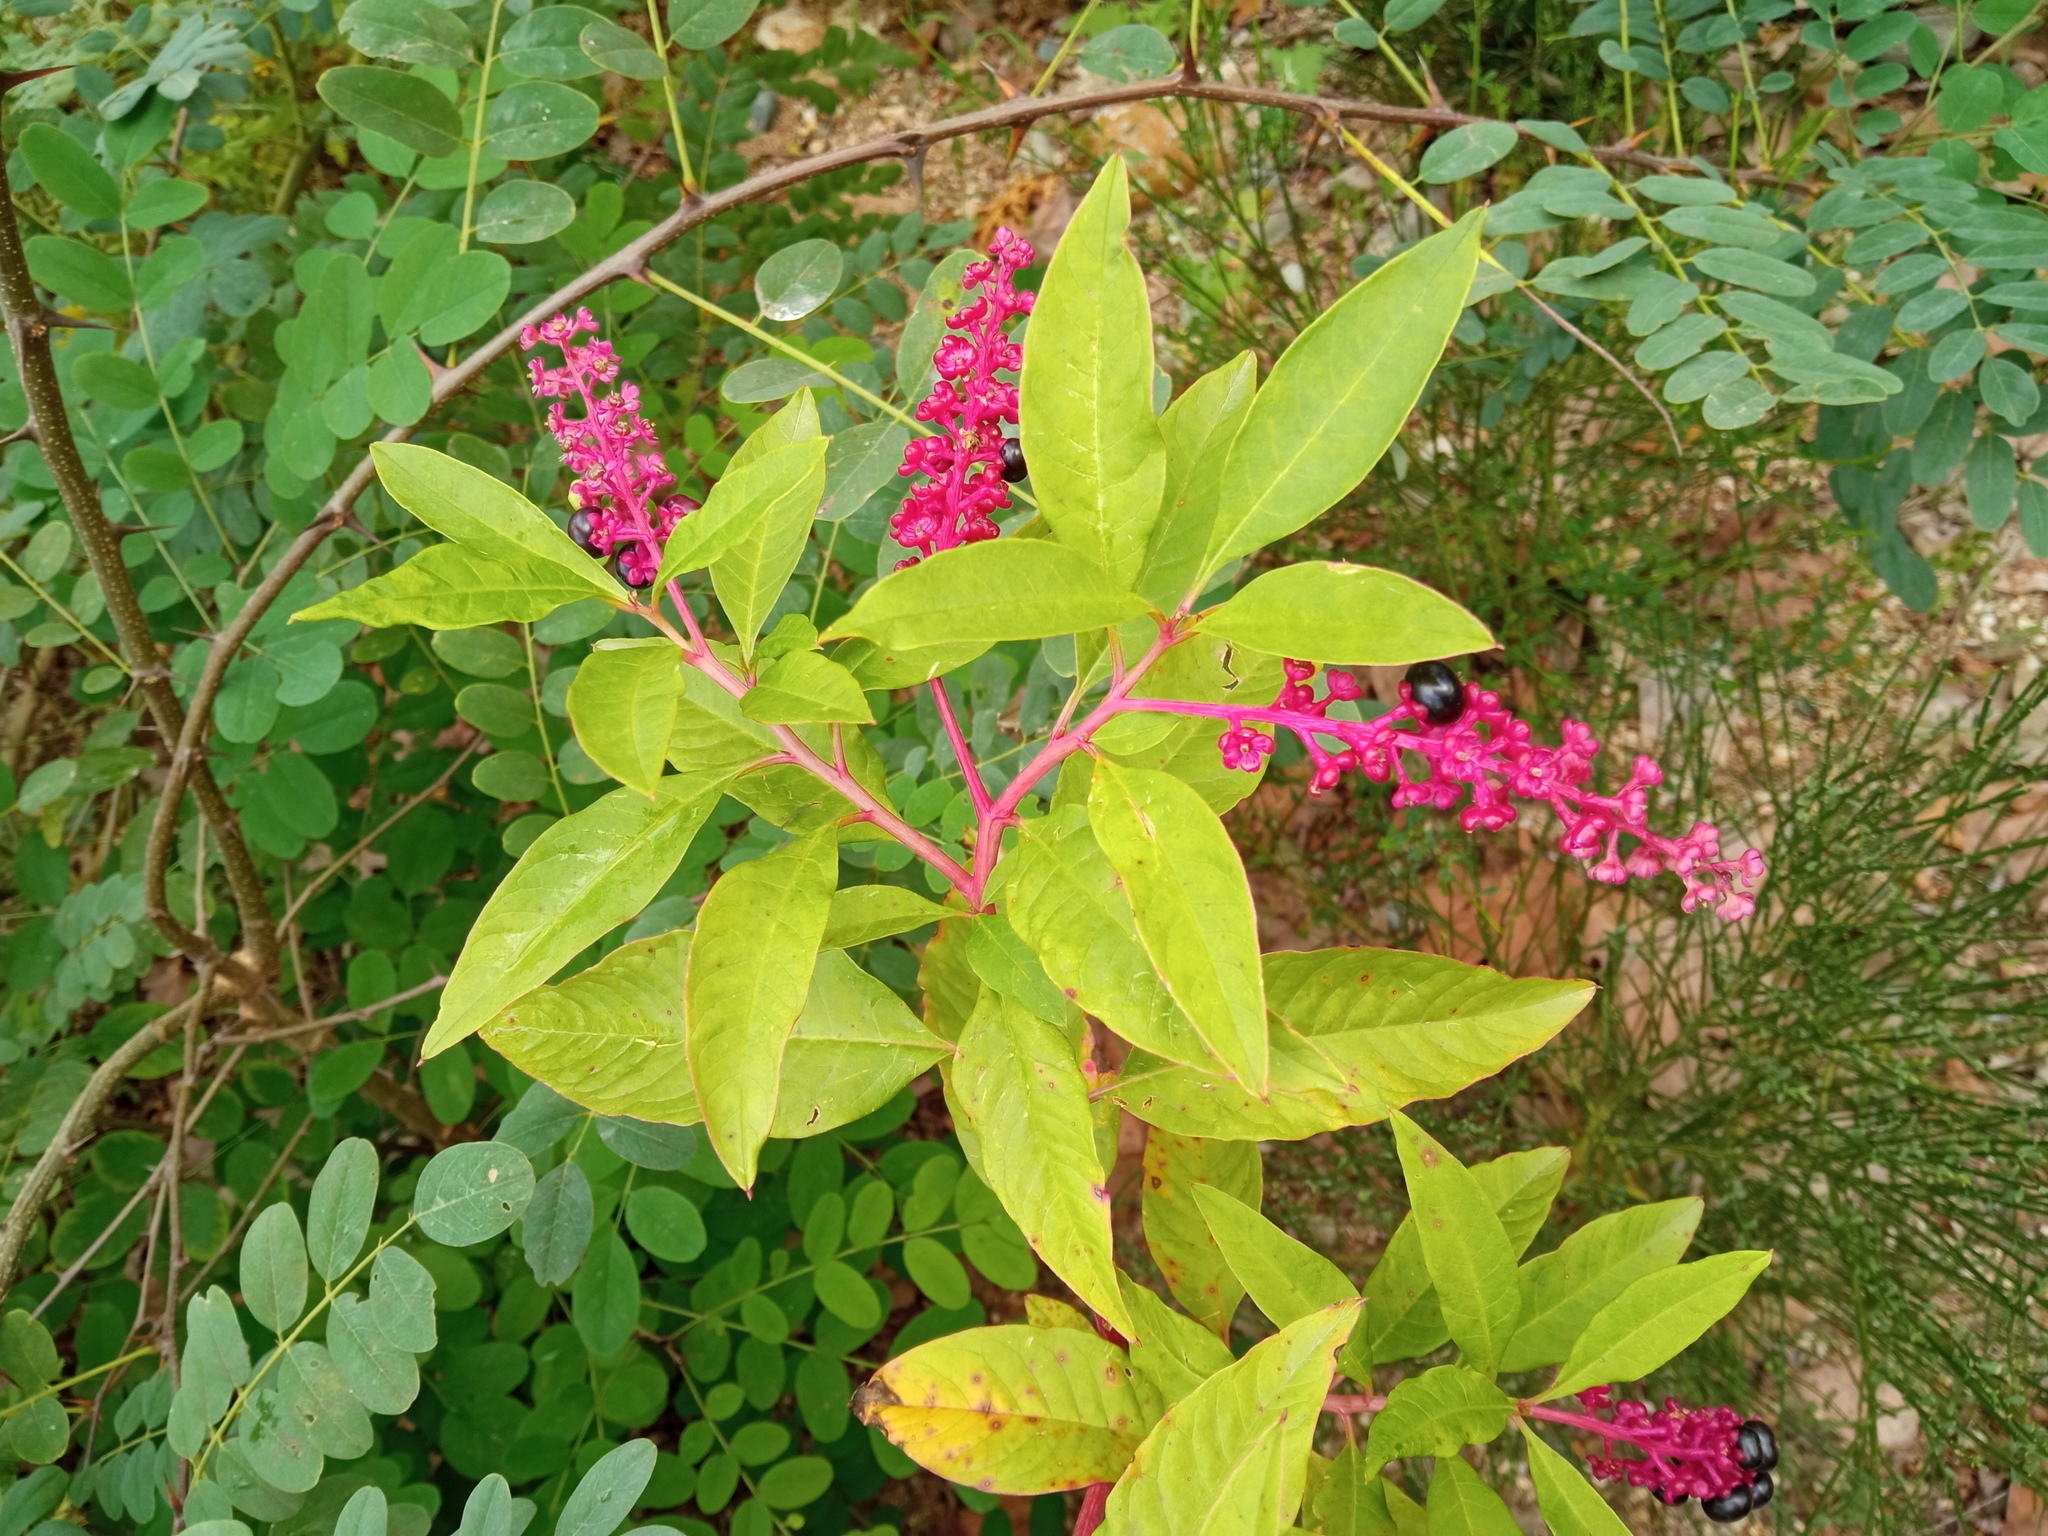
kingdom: Plantae
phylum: Tracheophyta
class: Magnoliopsida
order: Caryophyllales
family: Phytolaccaceae
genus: Phytolacca
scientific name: Phytolacca americana
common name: American pokeweed
